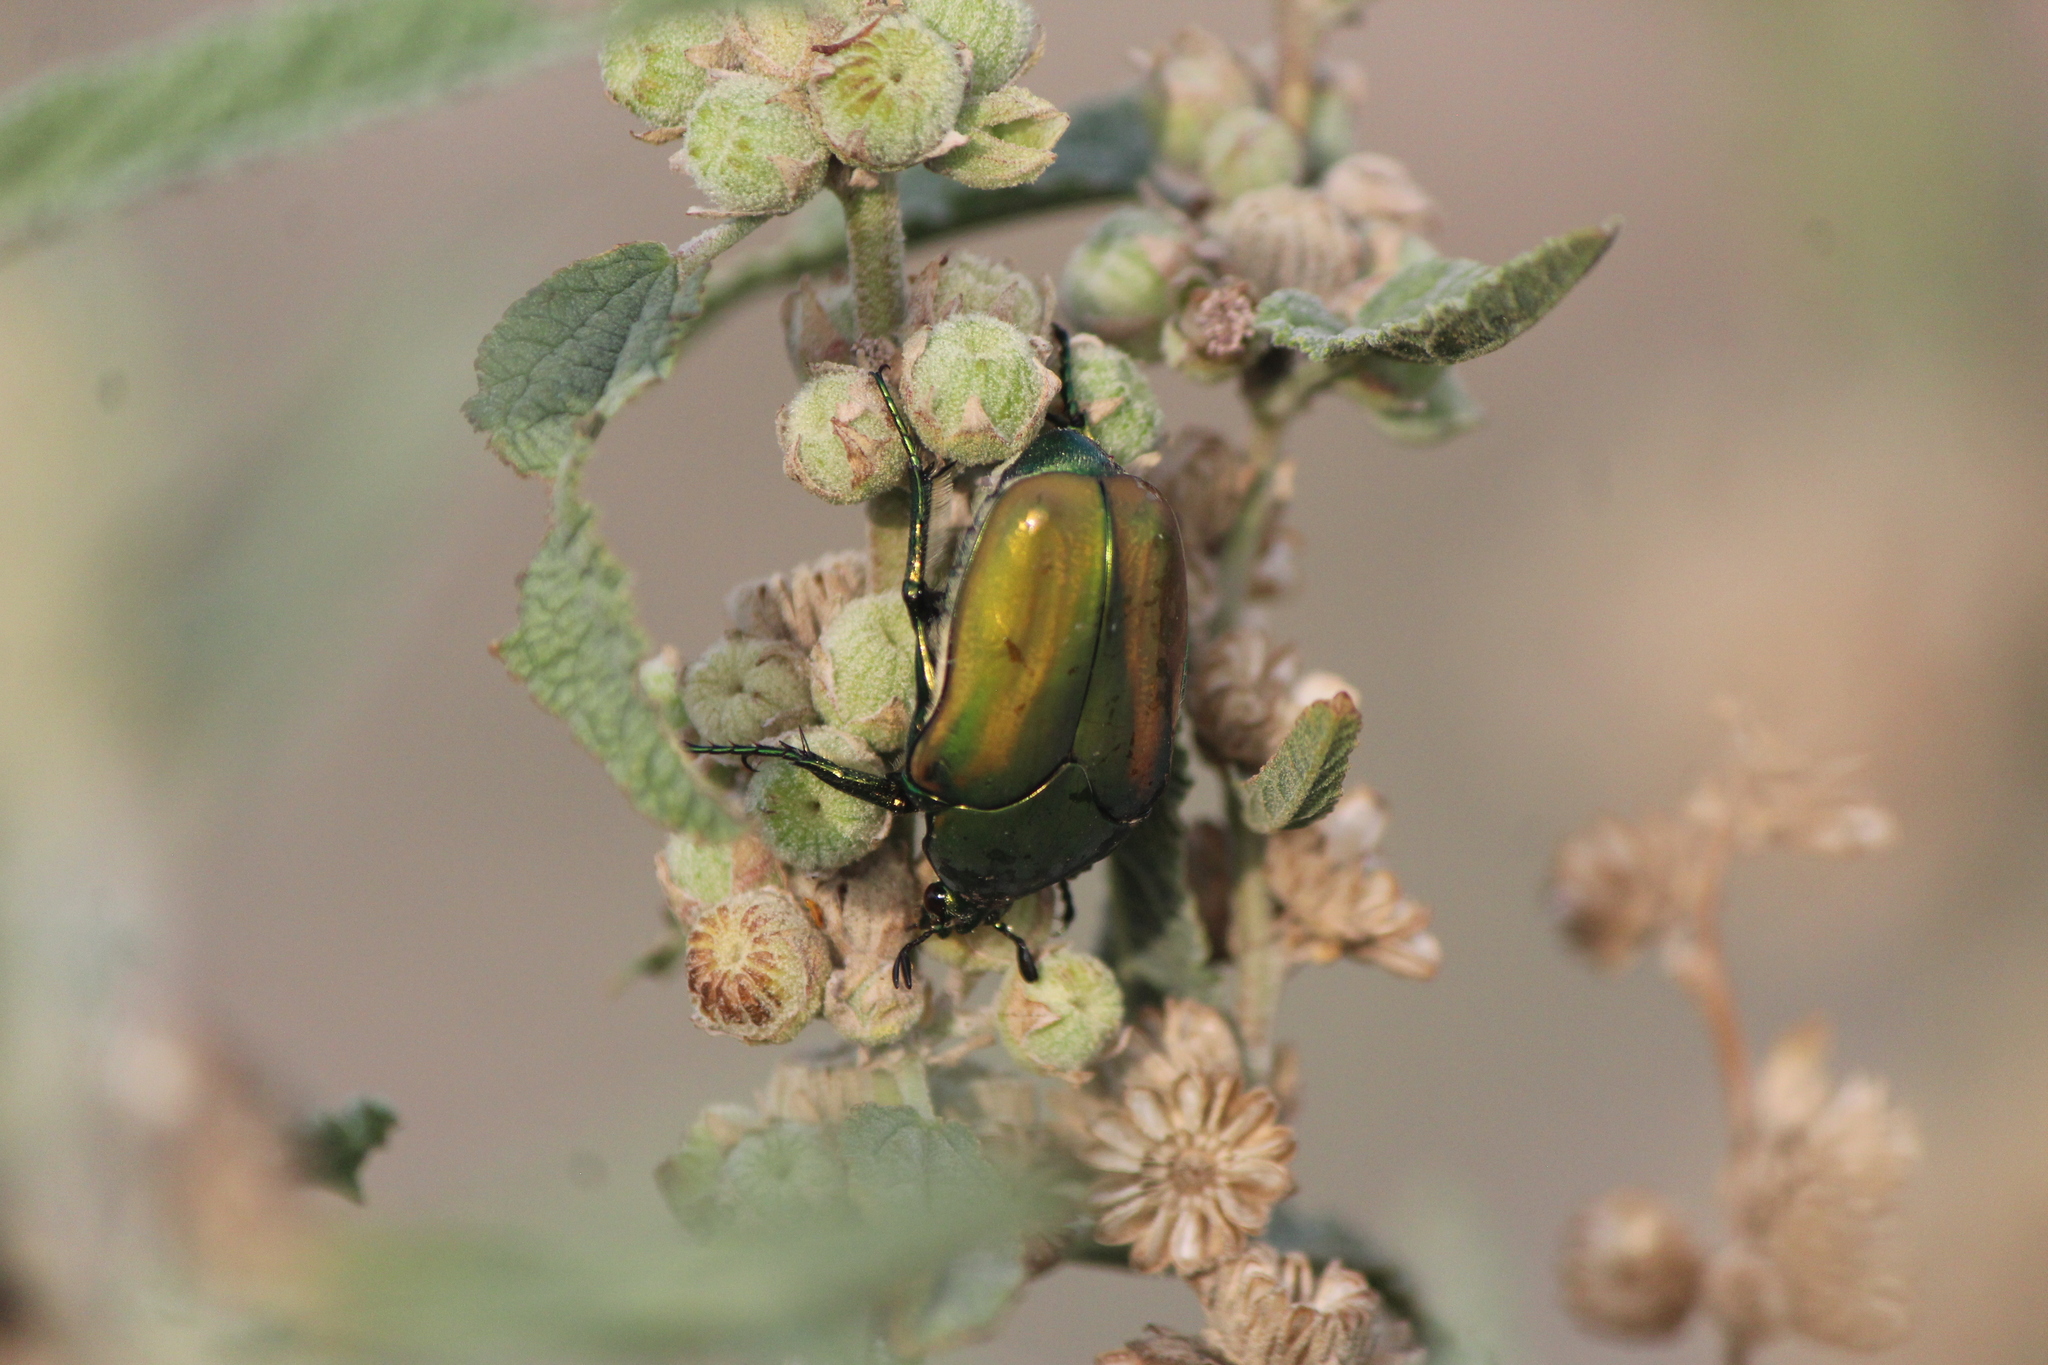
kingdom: Animalia
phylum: Arthropoda
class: Insecta
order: Coleoptera
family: Scarabaeidae
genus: Cotinis
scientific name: Cotinis mutabilis
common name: Figeater beetle
